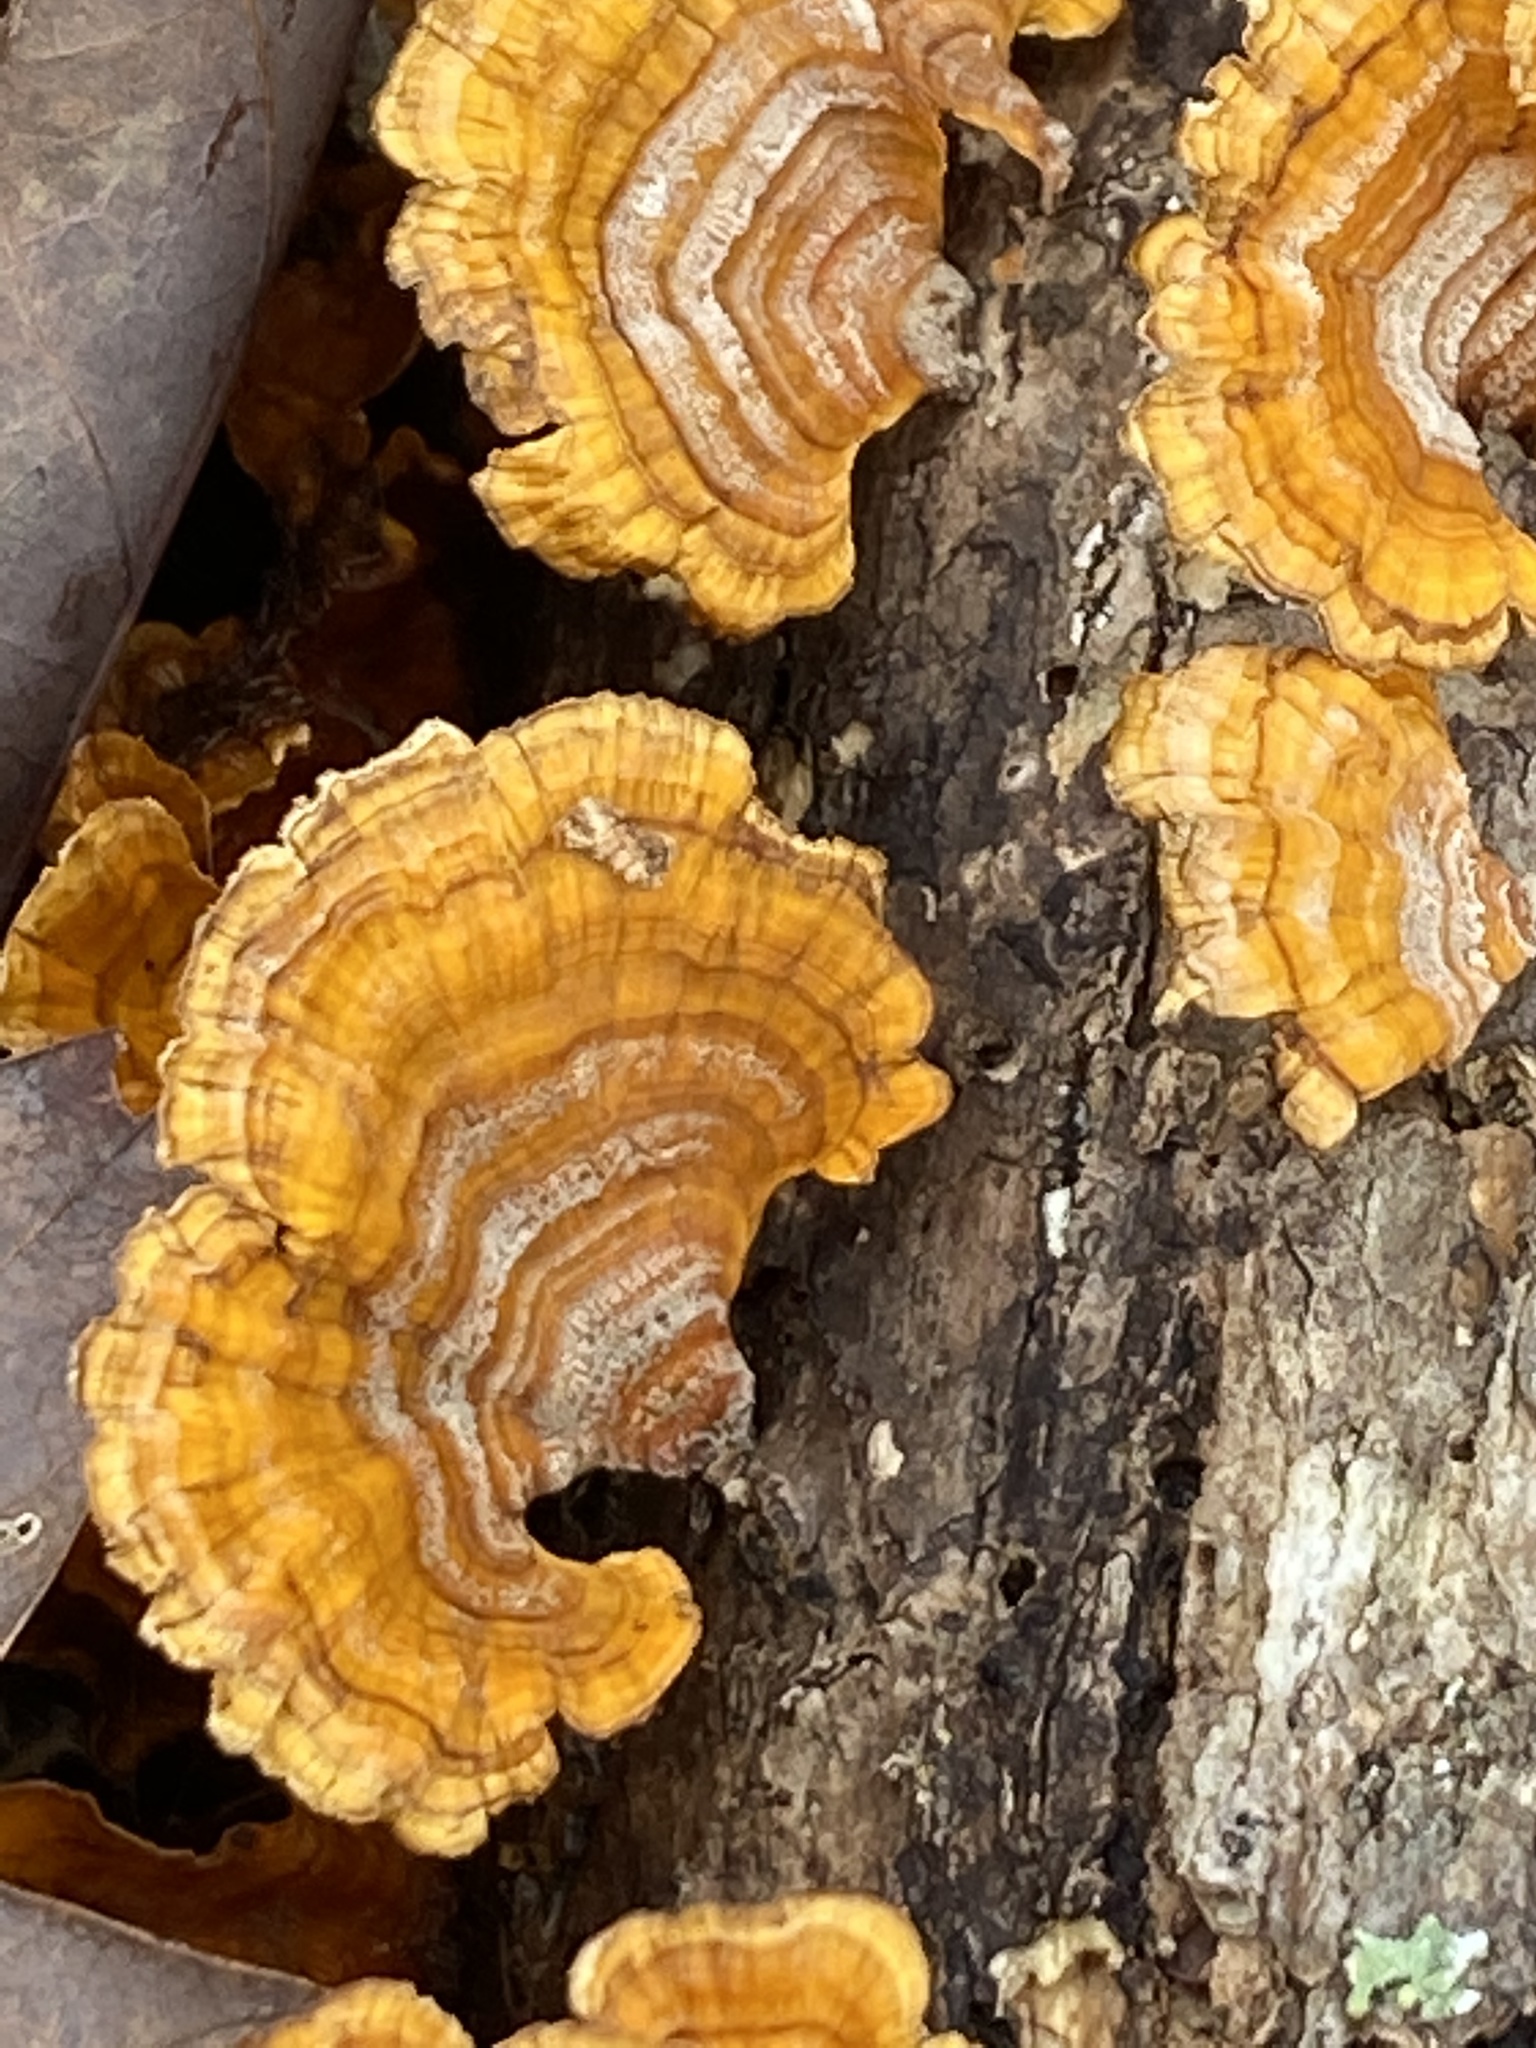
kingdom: Fungi
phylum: Basidiomycota
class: Agaricomycetes
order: Russulales
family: Stereaceae
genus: Stereum
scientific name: Stereum complicatum
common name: Crowded parchment
